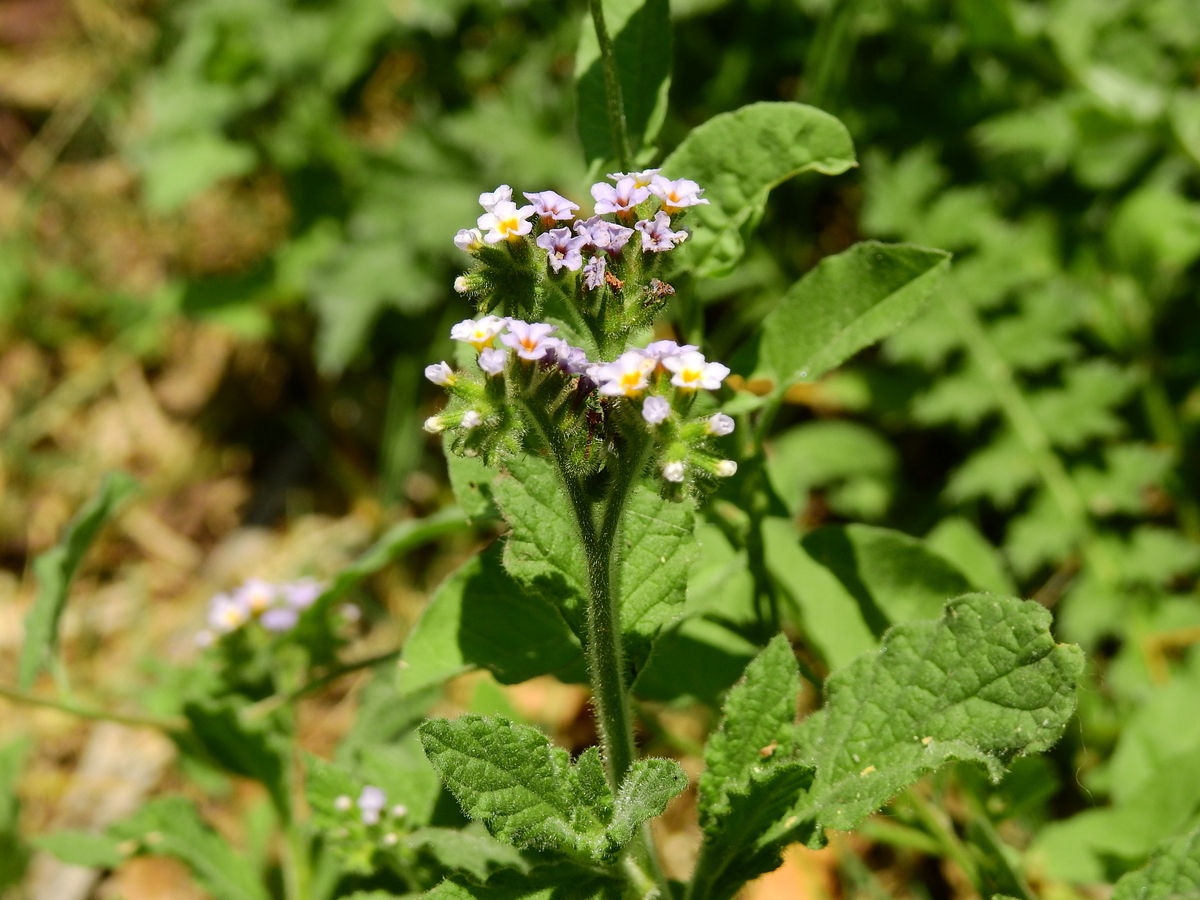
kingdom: Plantae
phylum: Tracheophyta
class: Magnoliopsida
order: Boraginales
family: Heliotropiaceae
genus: Heliotropium
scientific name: Heliotropium amplexicaule
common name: Clasping heliotrope
